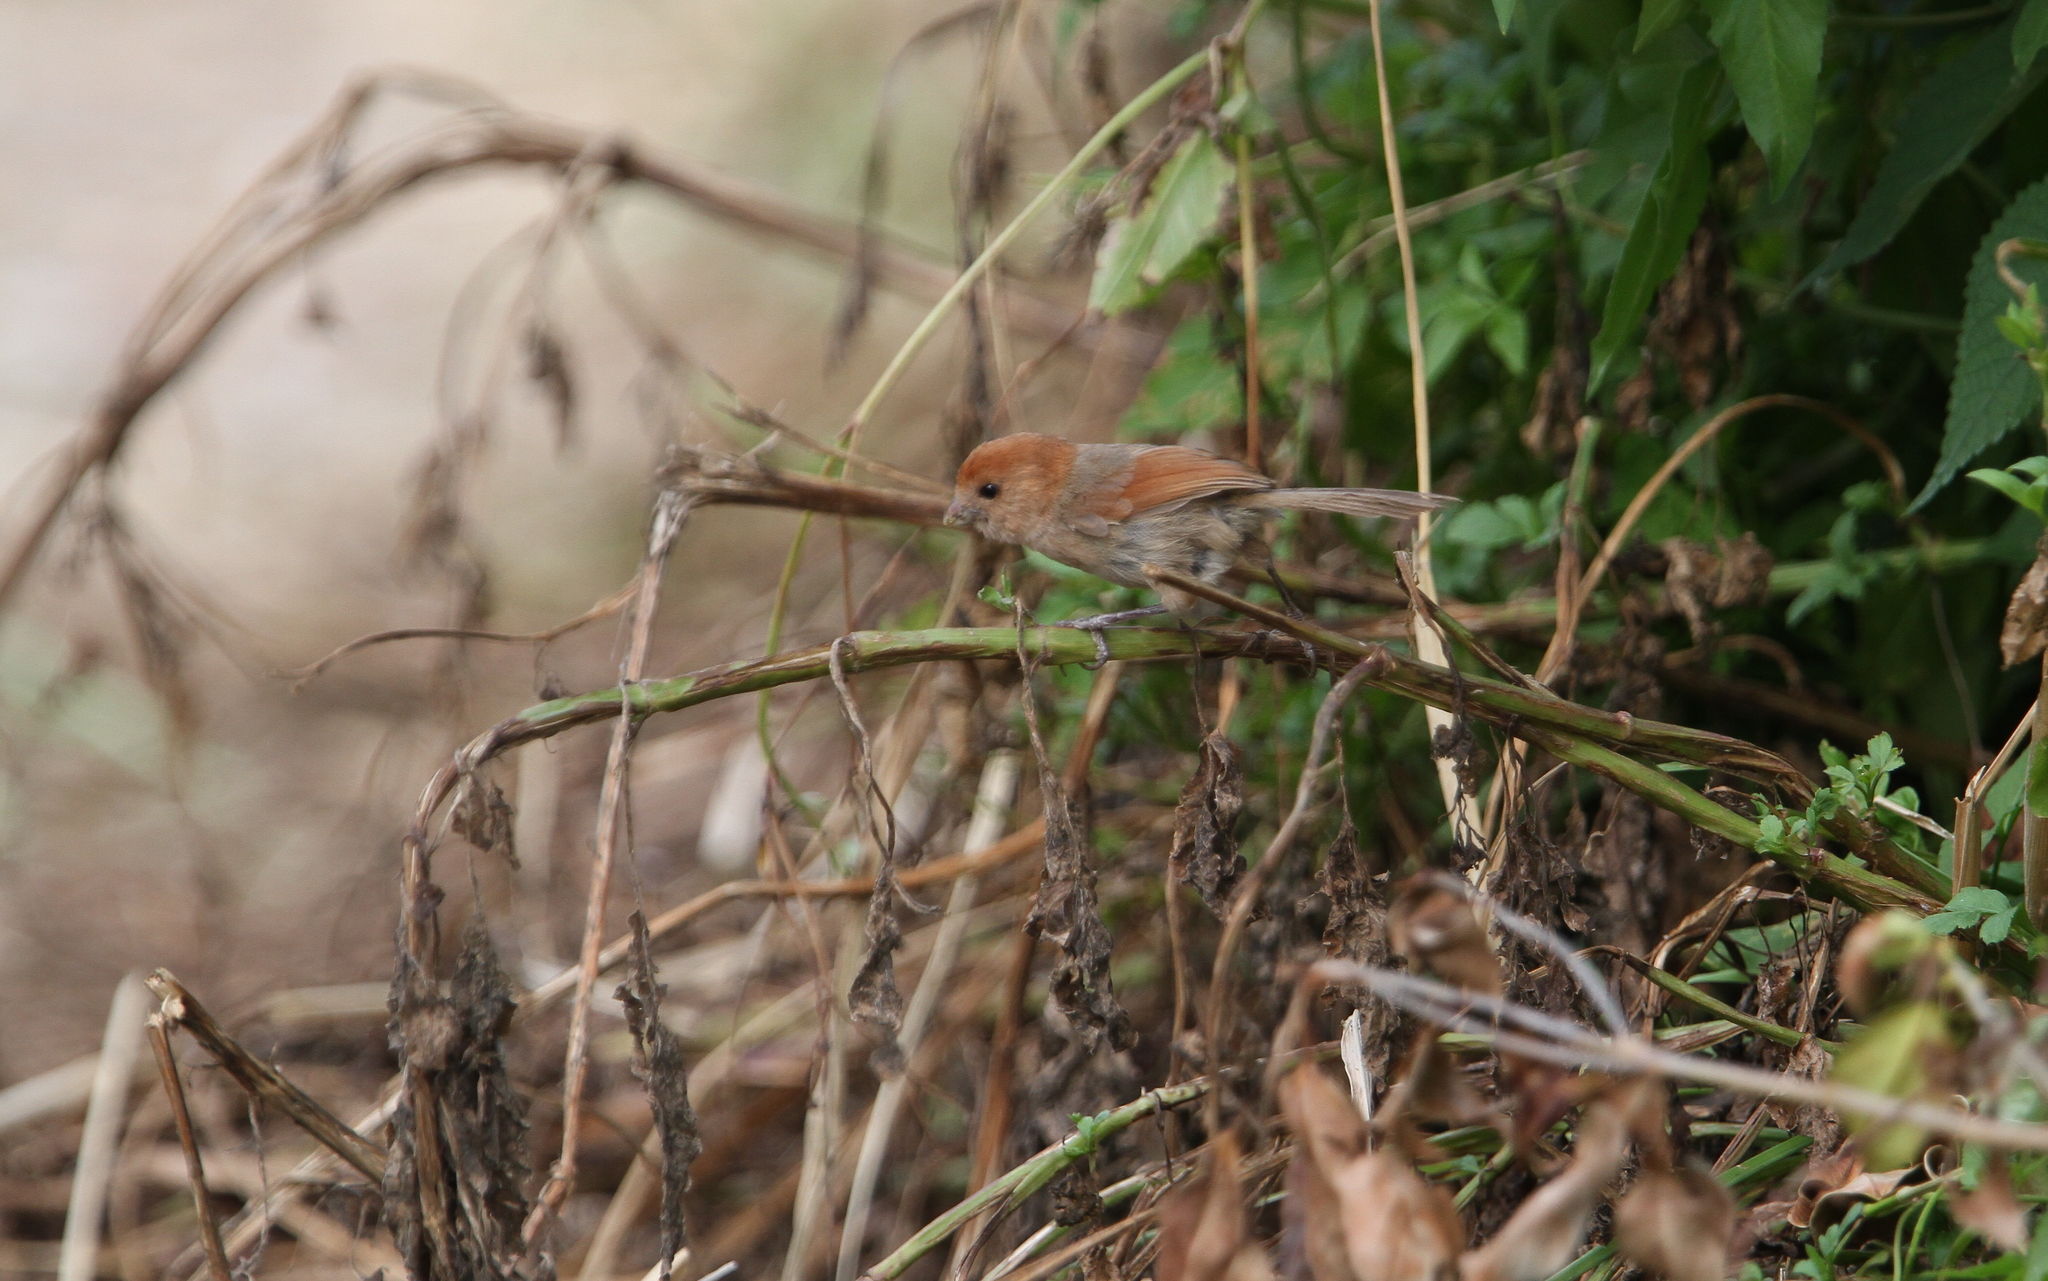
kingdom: Animalia
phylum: Chordata
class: Aves
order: Passeriformes
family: Sylviidae
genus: Sinosuthora
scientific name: Sinosuthora webbiana
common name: Vinous-throated parrotbill
